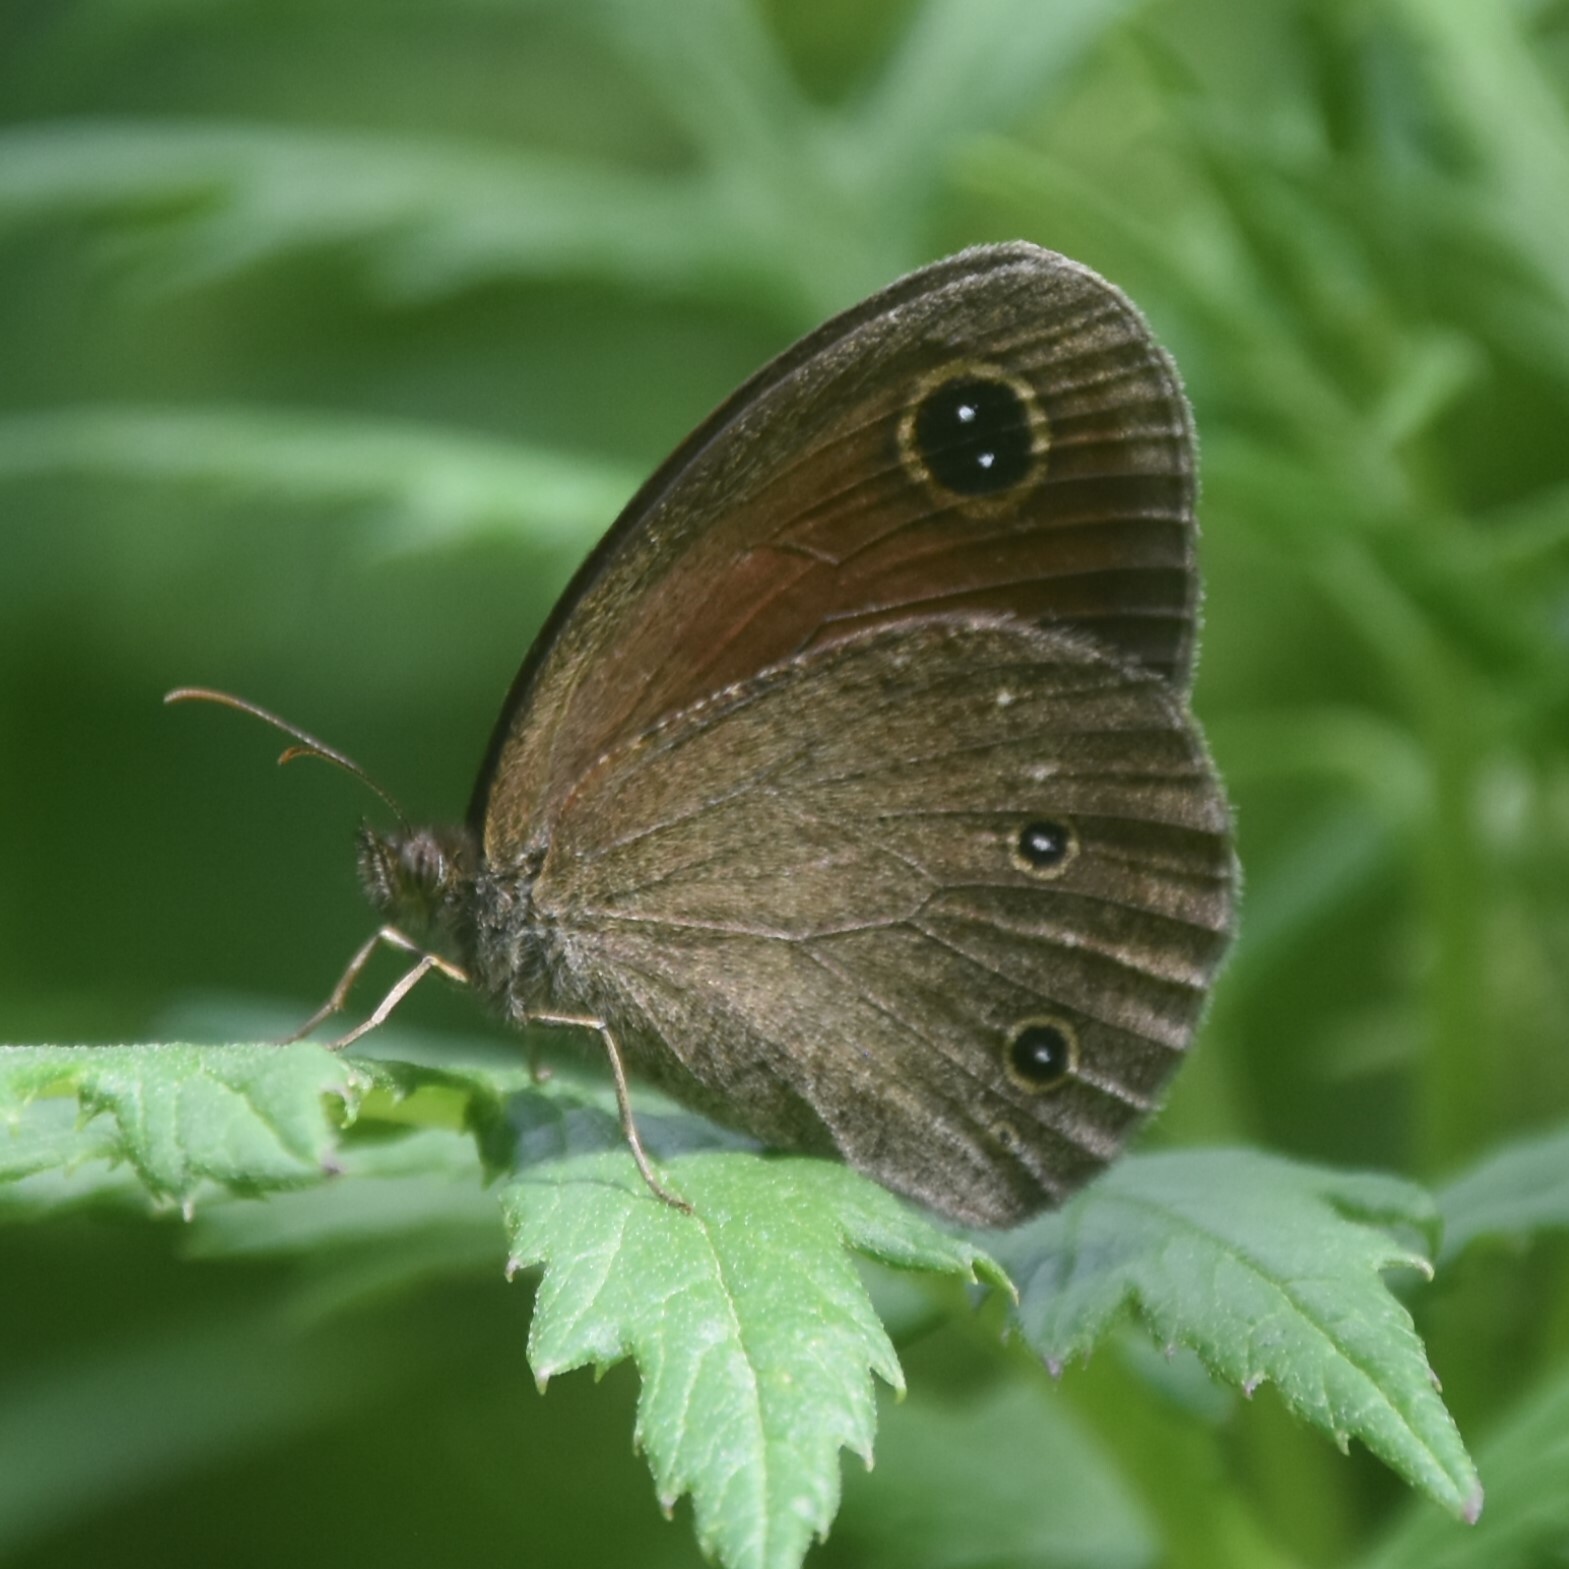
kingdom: Animalia
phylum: Arthropoda
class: Insecta
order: Lepidoptera
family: Nymphalidae
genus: Callerebia
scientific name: Callerebia nirmala
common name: Common argus
